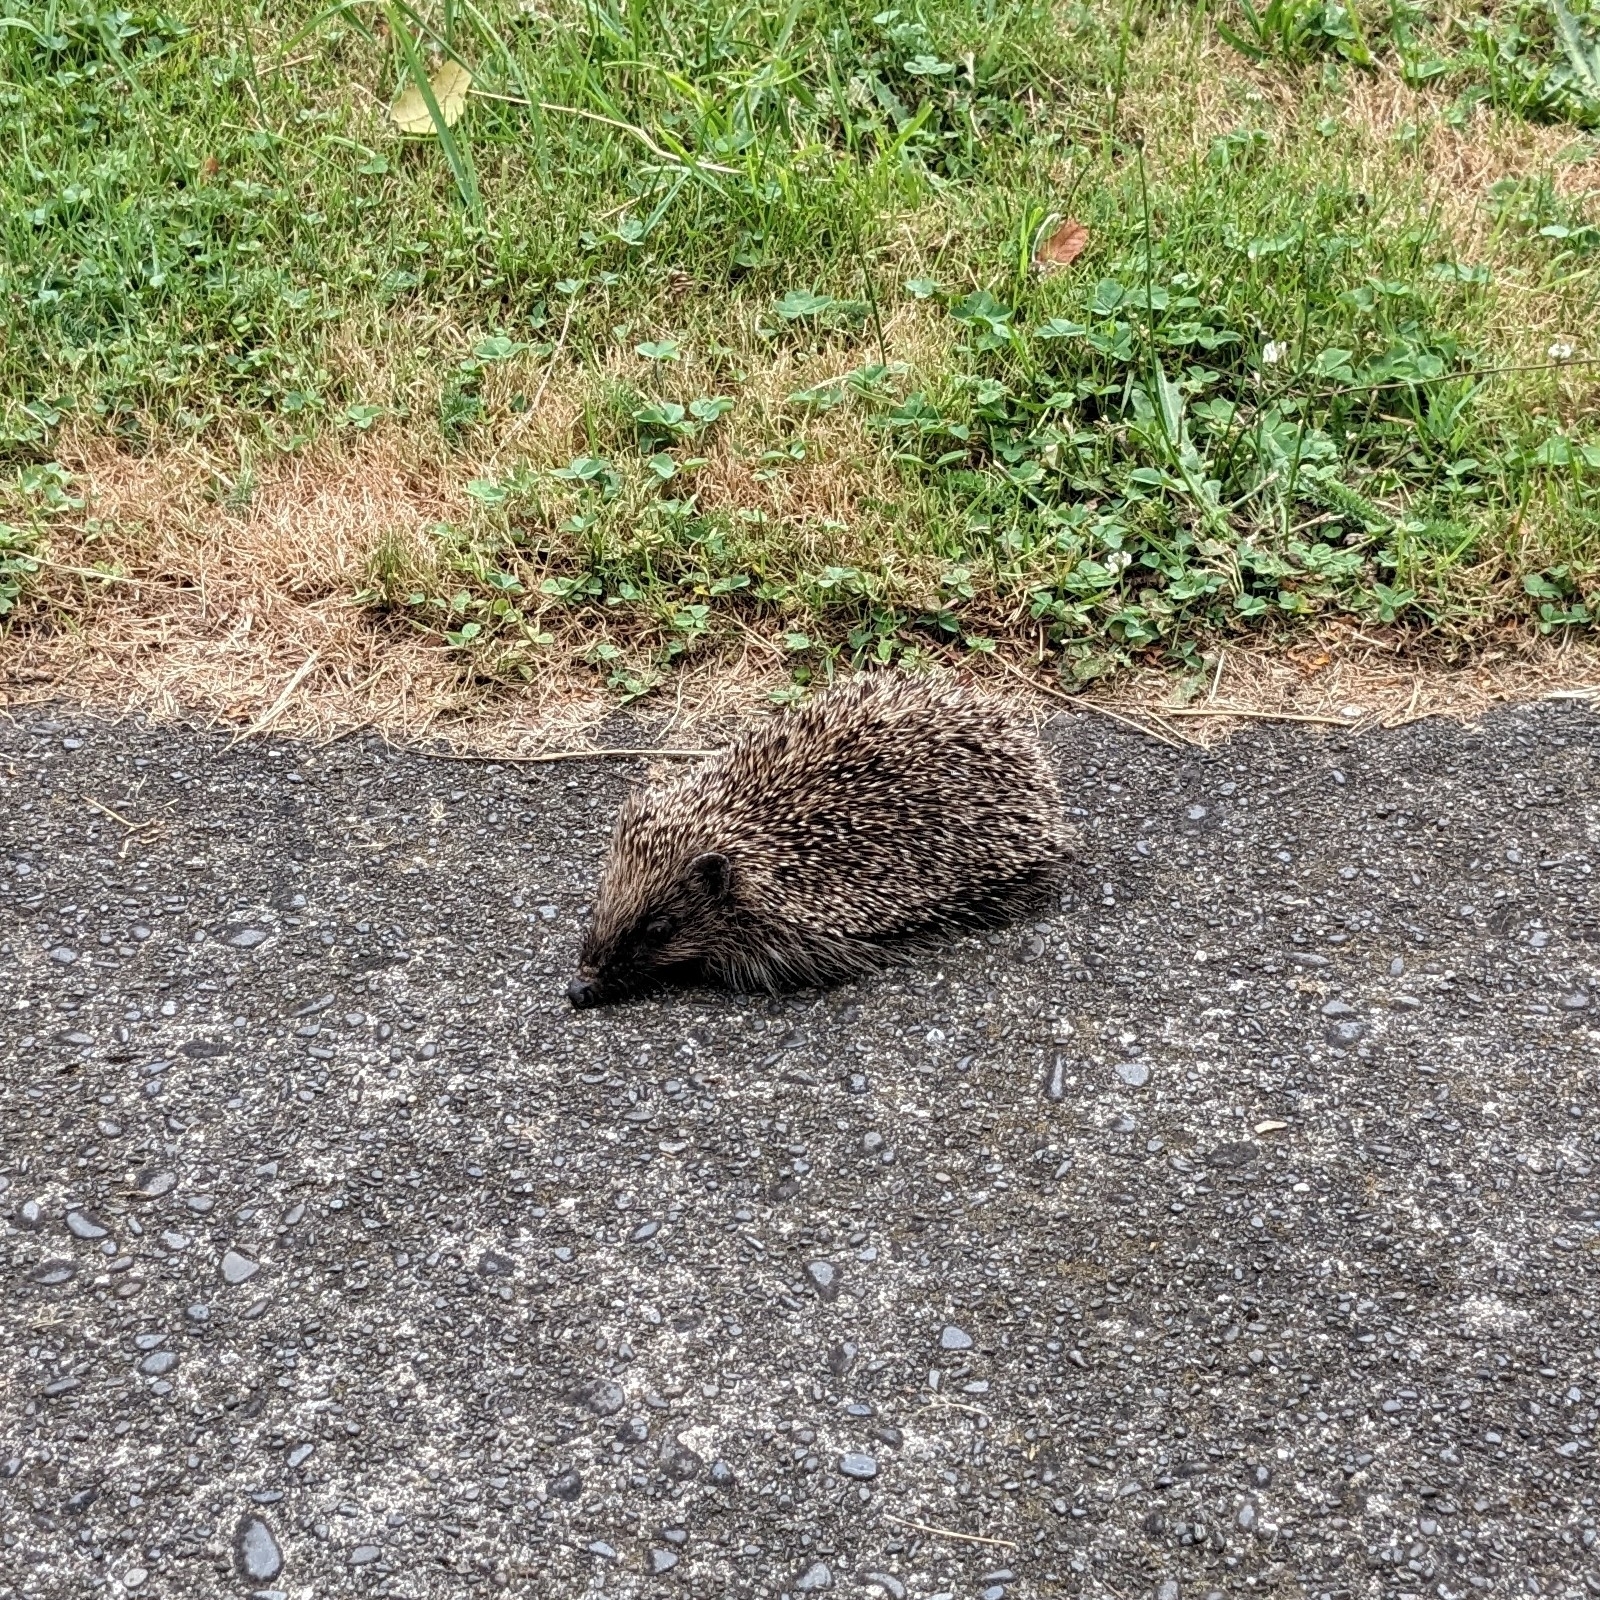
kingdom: Animalia
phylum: Chordata
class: Mammalia
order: Erinaceomorpha
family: Erinaceidae
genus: Erinaceus
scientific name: Erinaceus europaeus
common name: West european hedgehog
